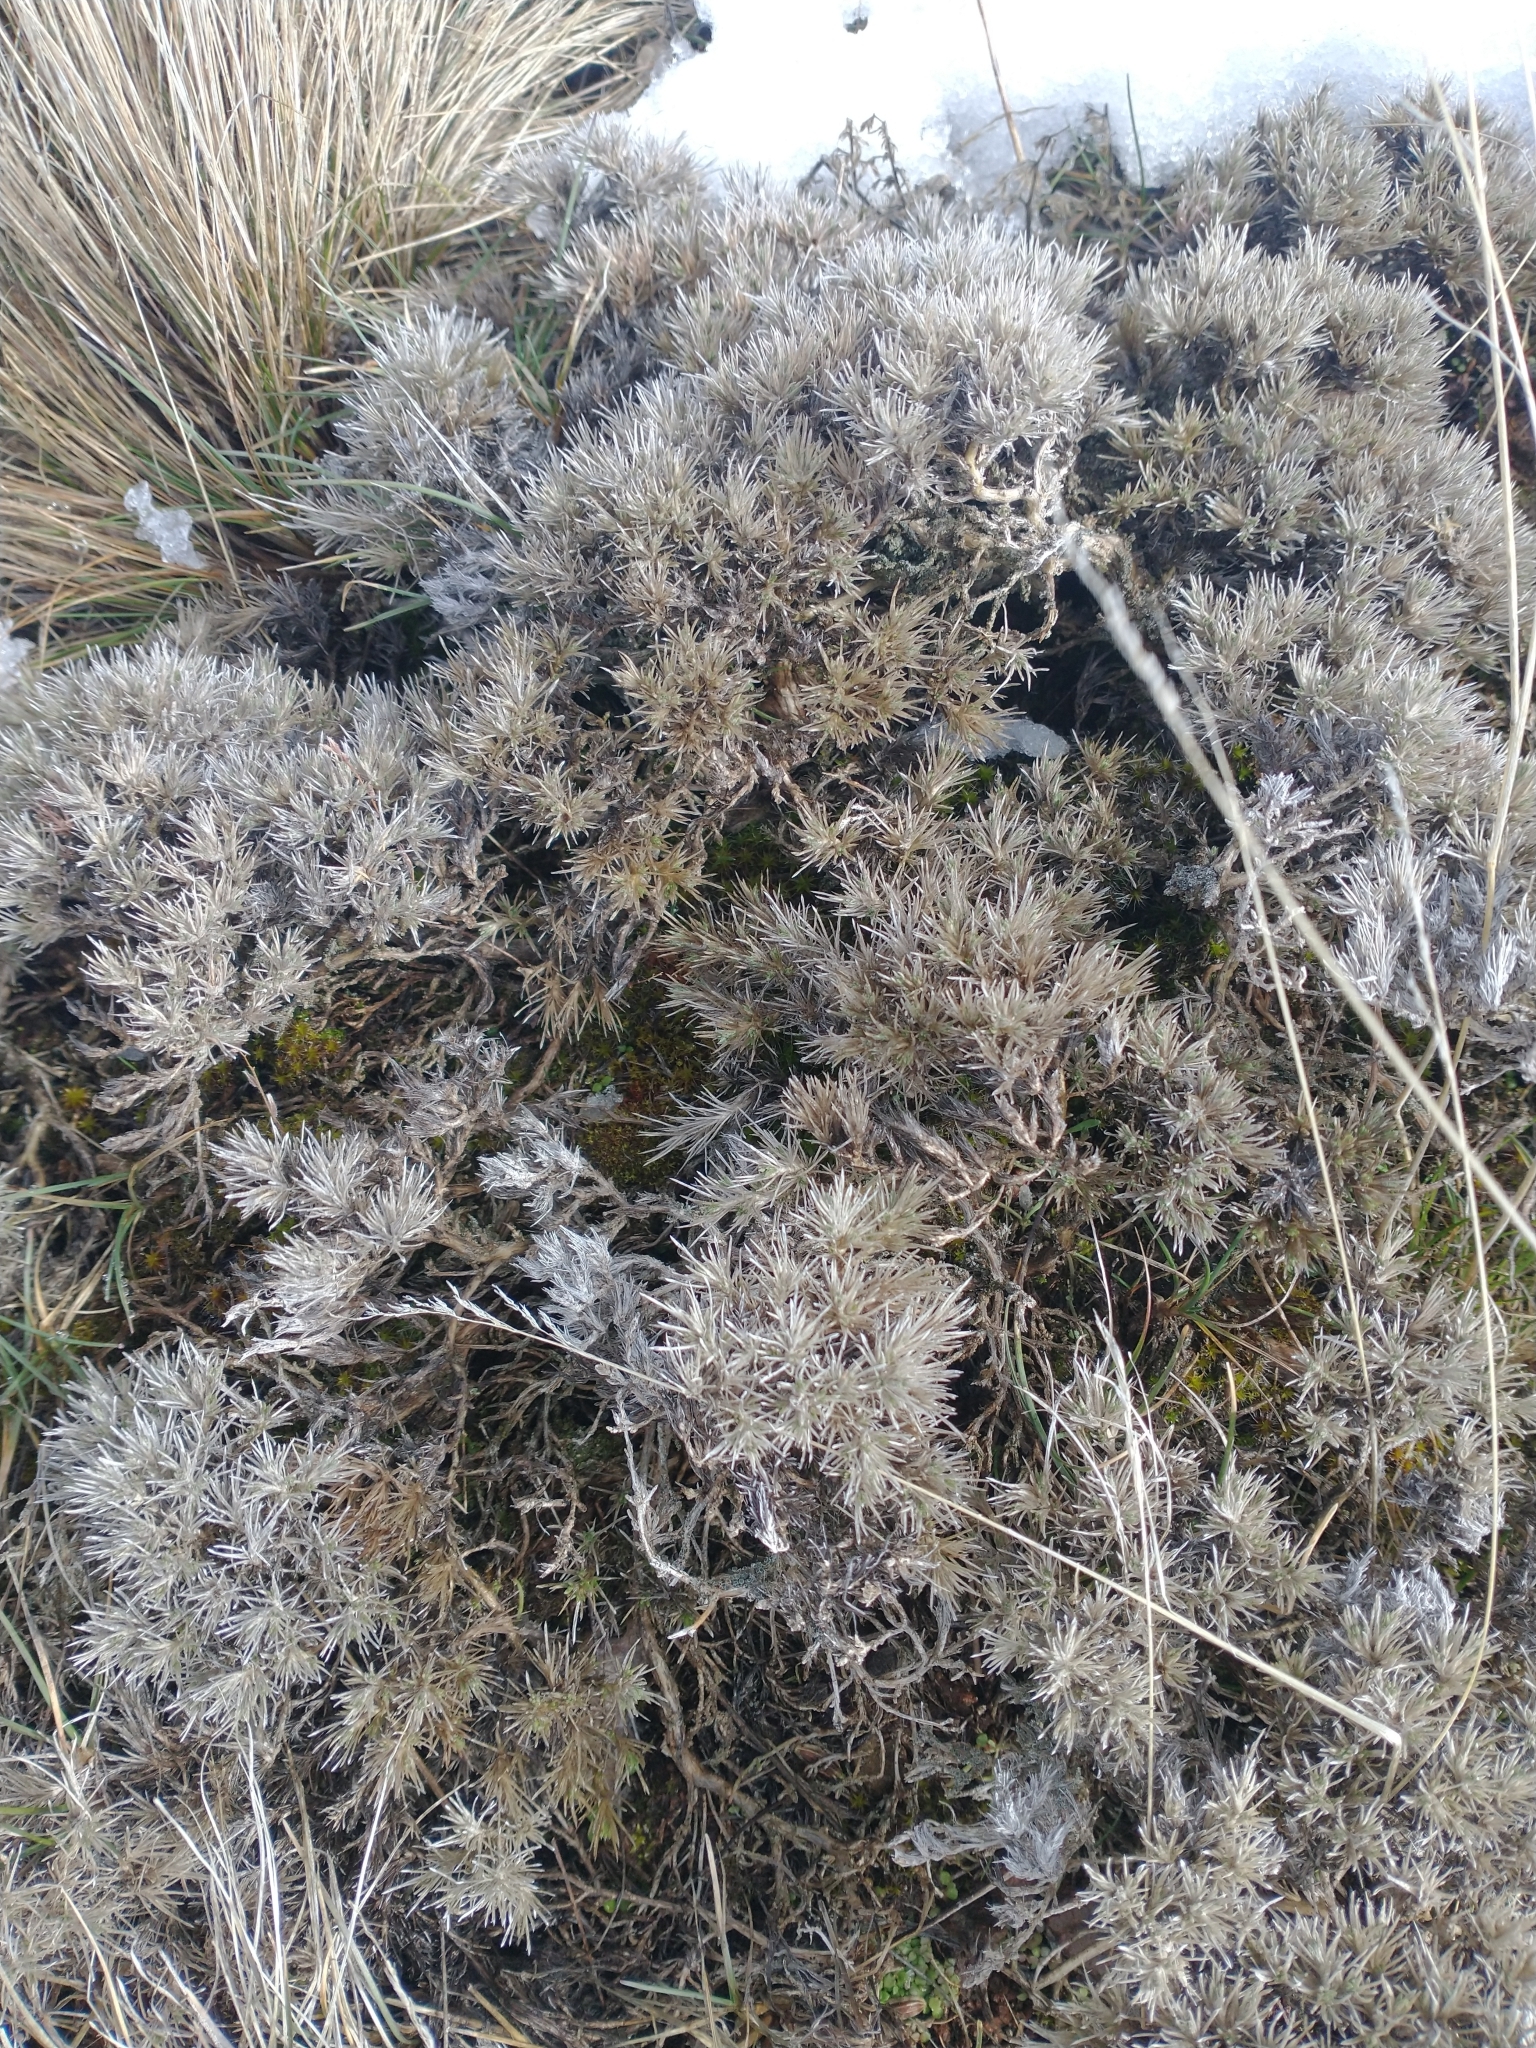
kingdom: Plantae
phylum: Tracheophyta
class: Magnoliopsida
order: Ericales
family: Polemoniaceae
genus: Phlox
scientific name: Phlox hoodii
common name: Moss phlox
